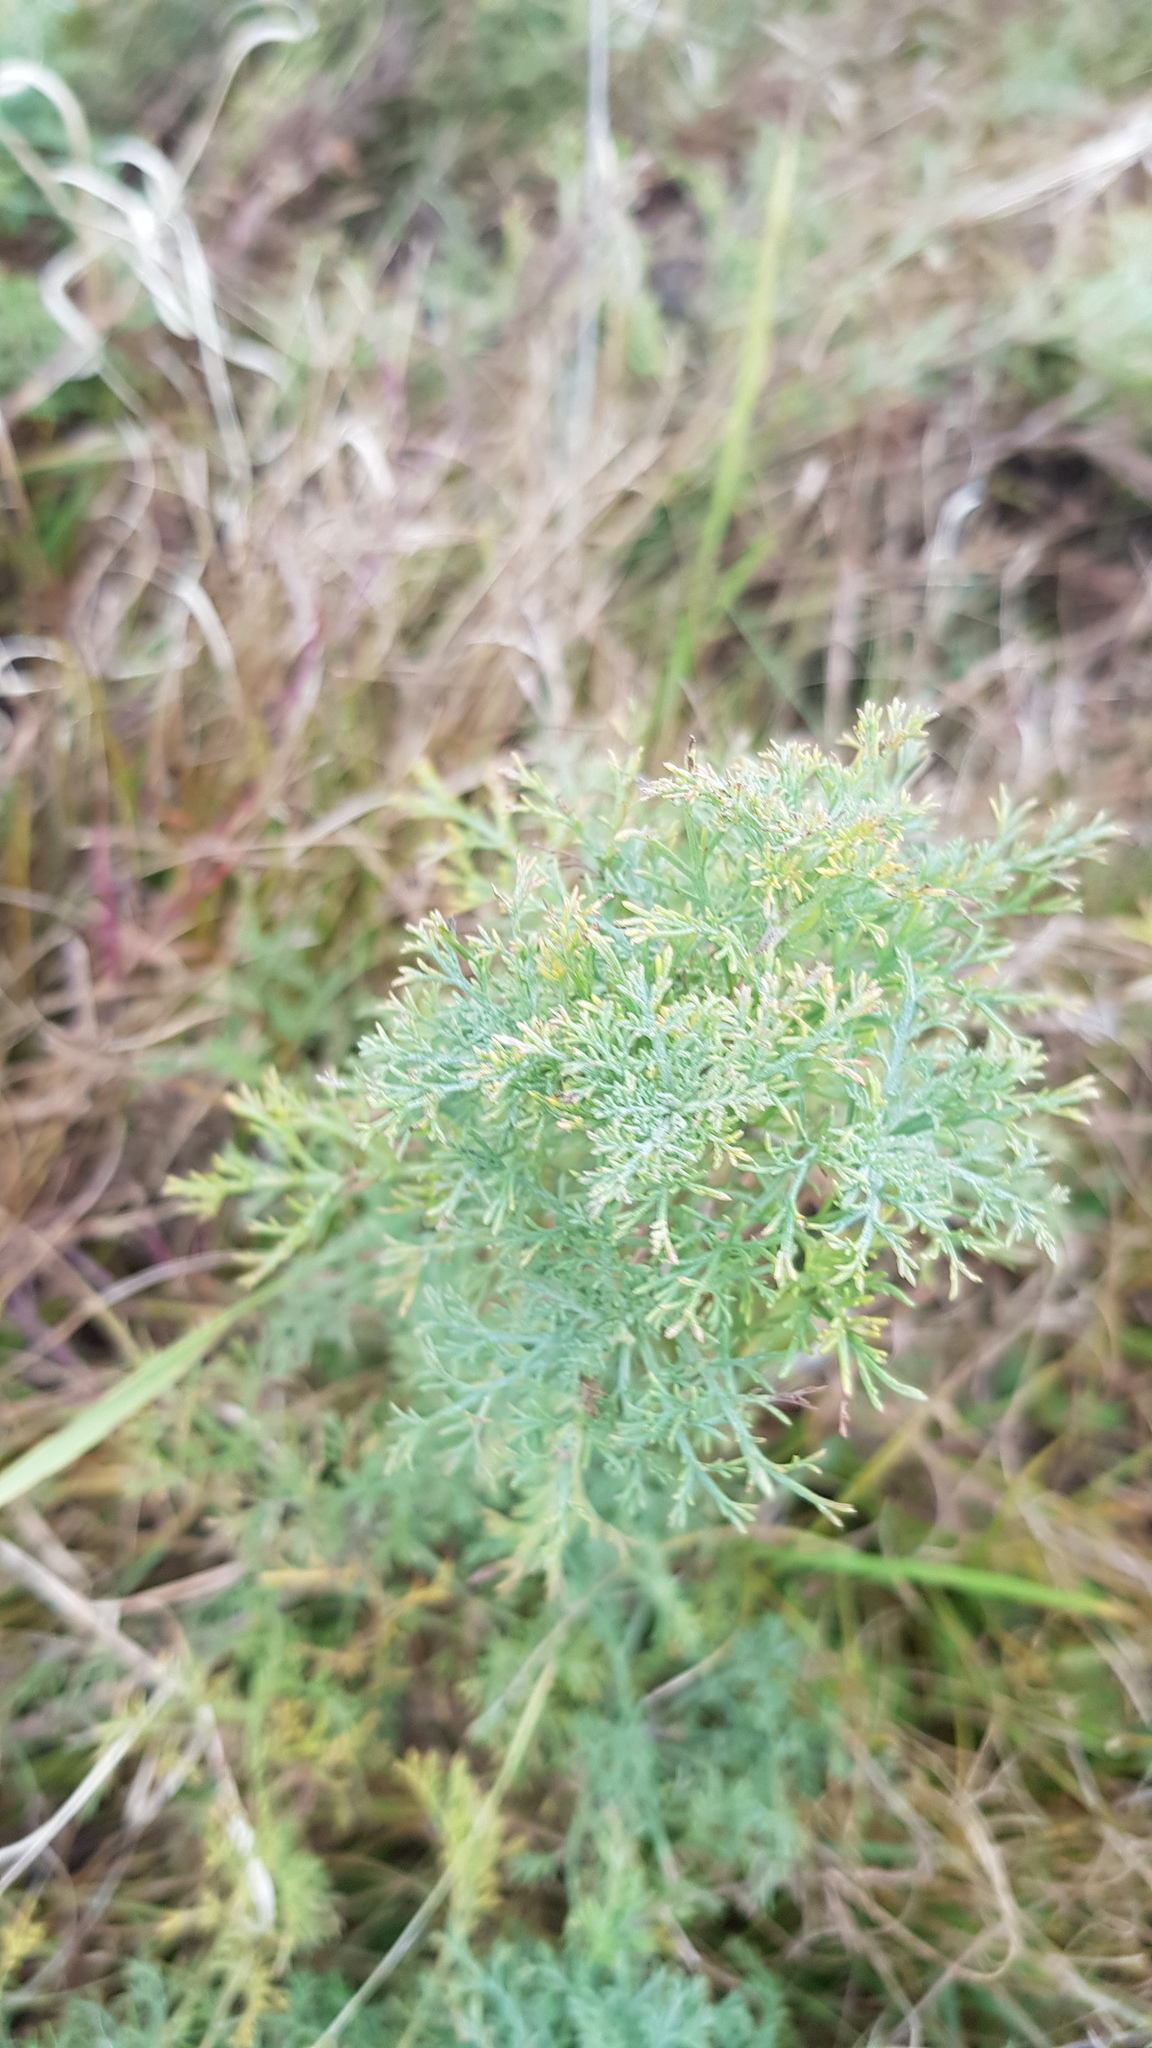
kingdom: Plantae
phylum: Tracheophyta
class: Magnoliopsida
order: Asterales
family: Asteraceae
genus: Artemisia
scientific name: Artemisia adamsii
